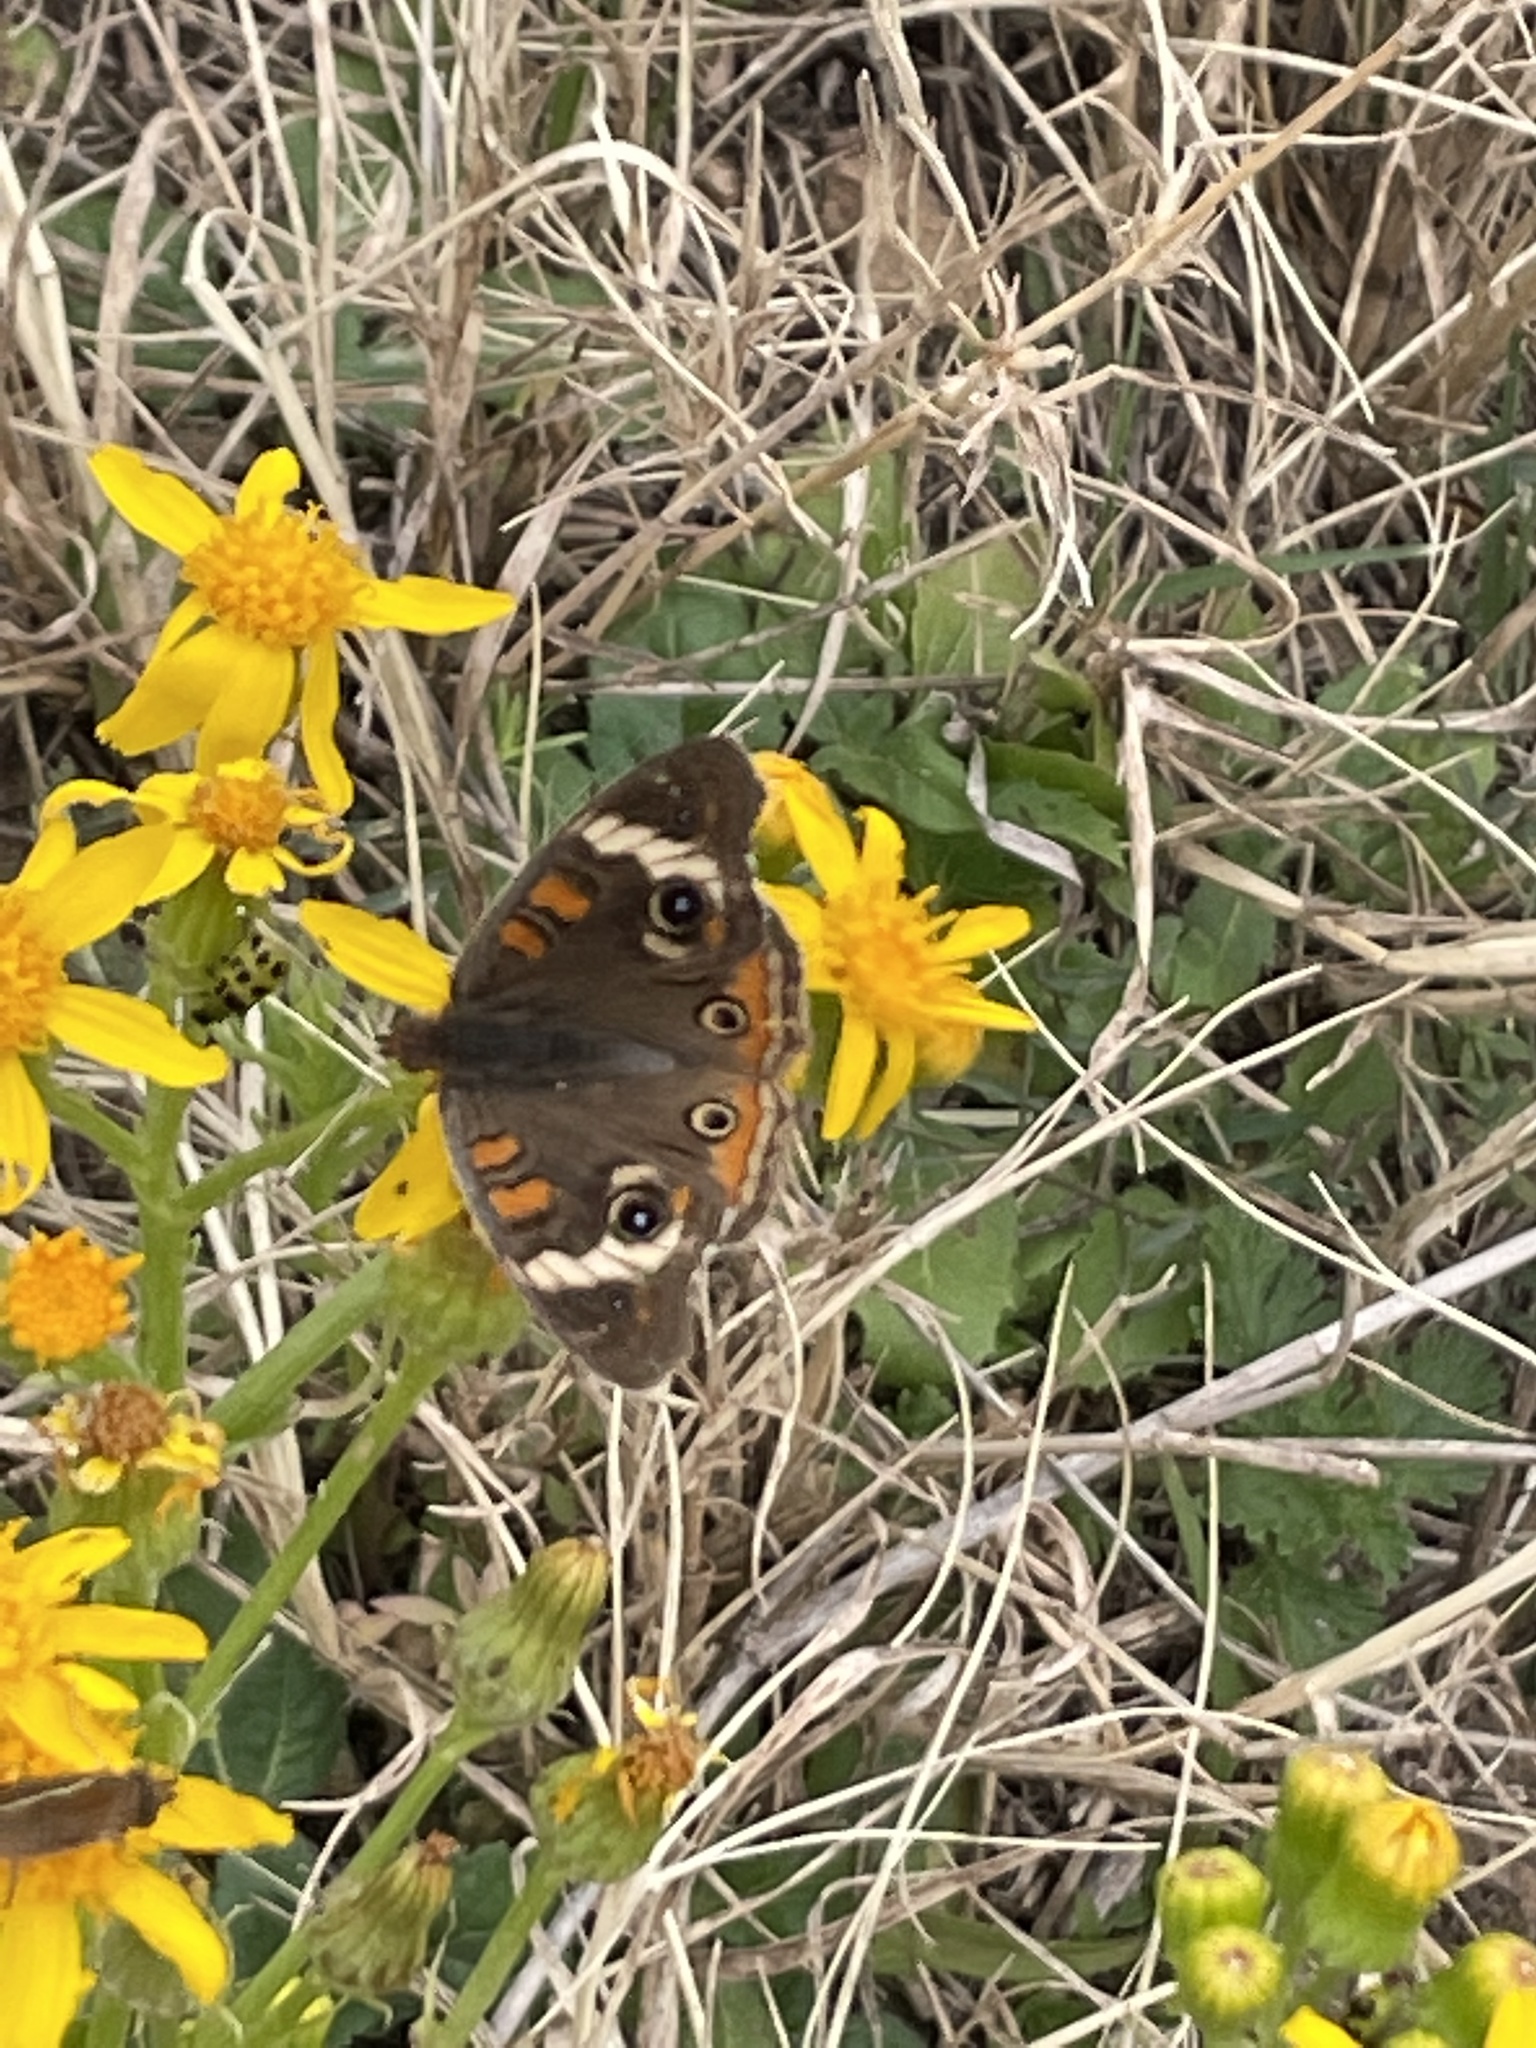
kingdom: Animalia
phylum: Arthropoda
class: Insecta
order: Lepidoptera
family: Nymphalidae
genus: Junonia
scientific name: Junonia coenia
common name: Common buckeye
